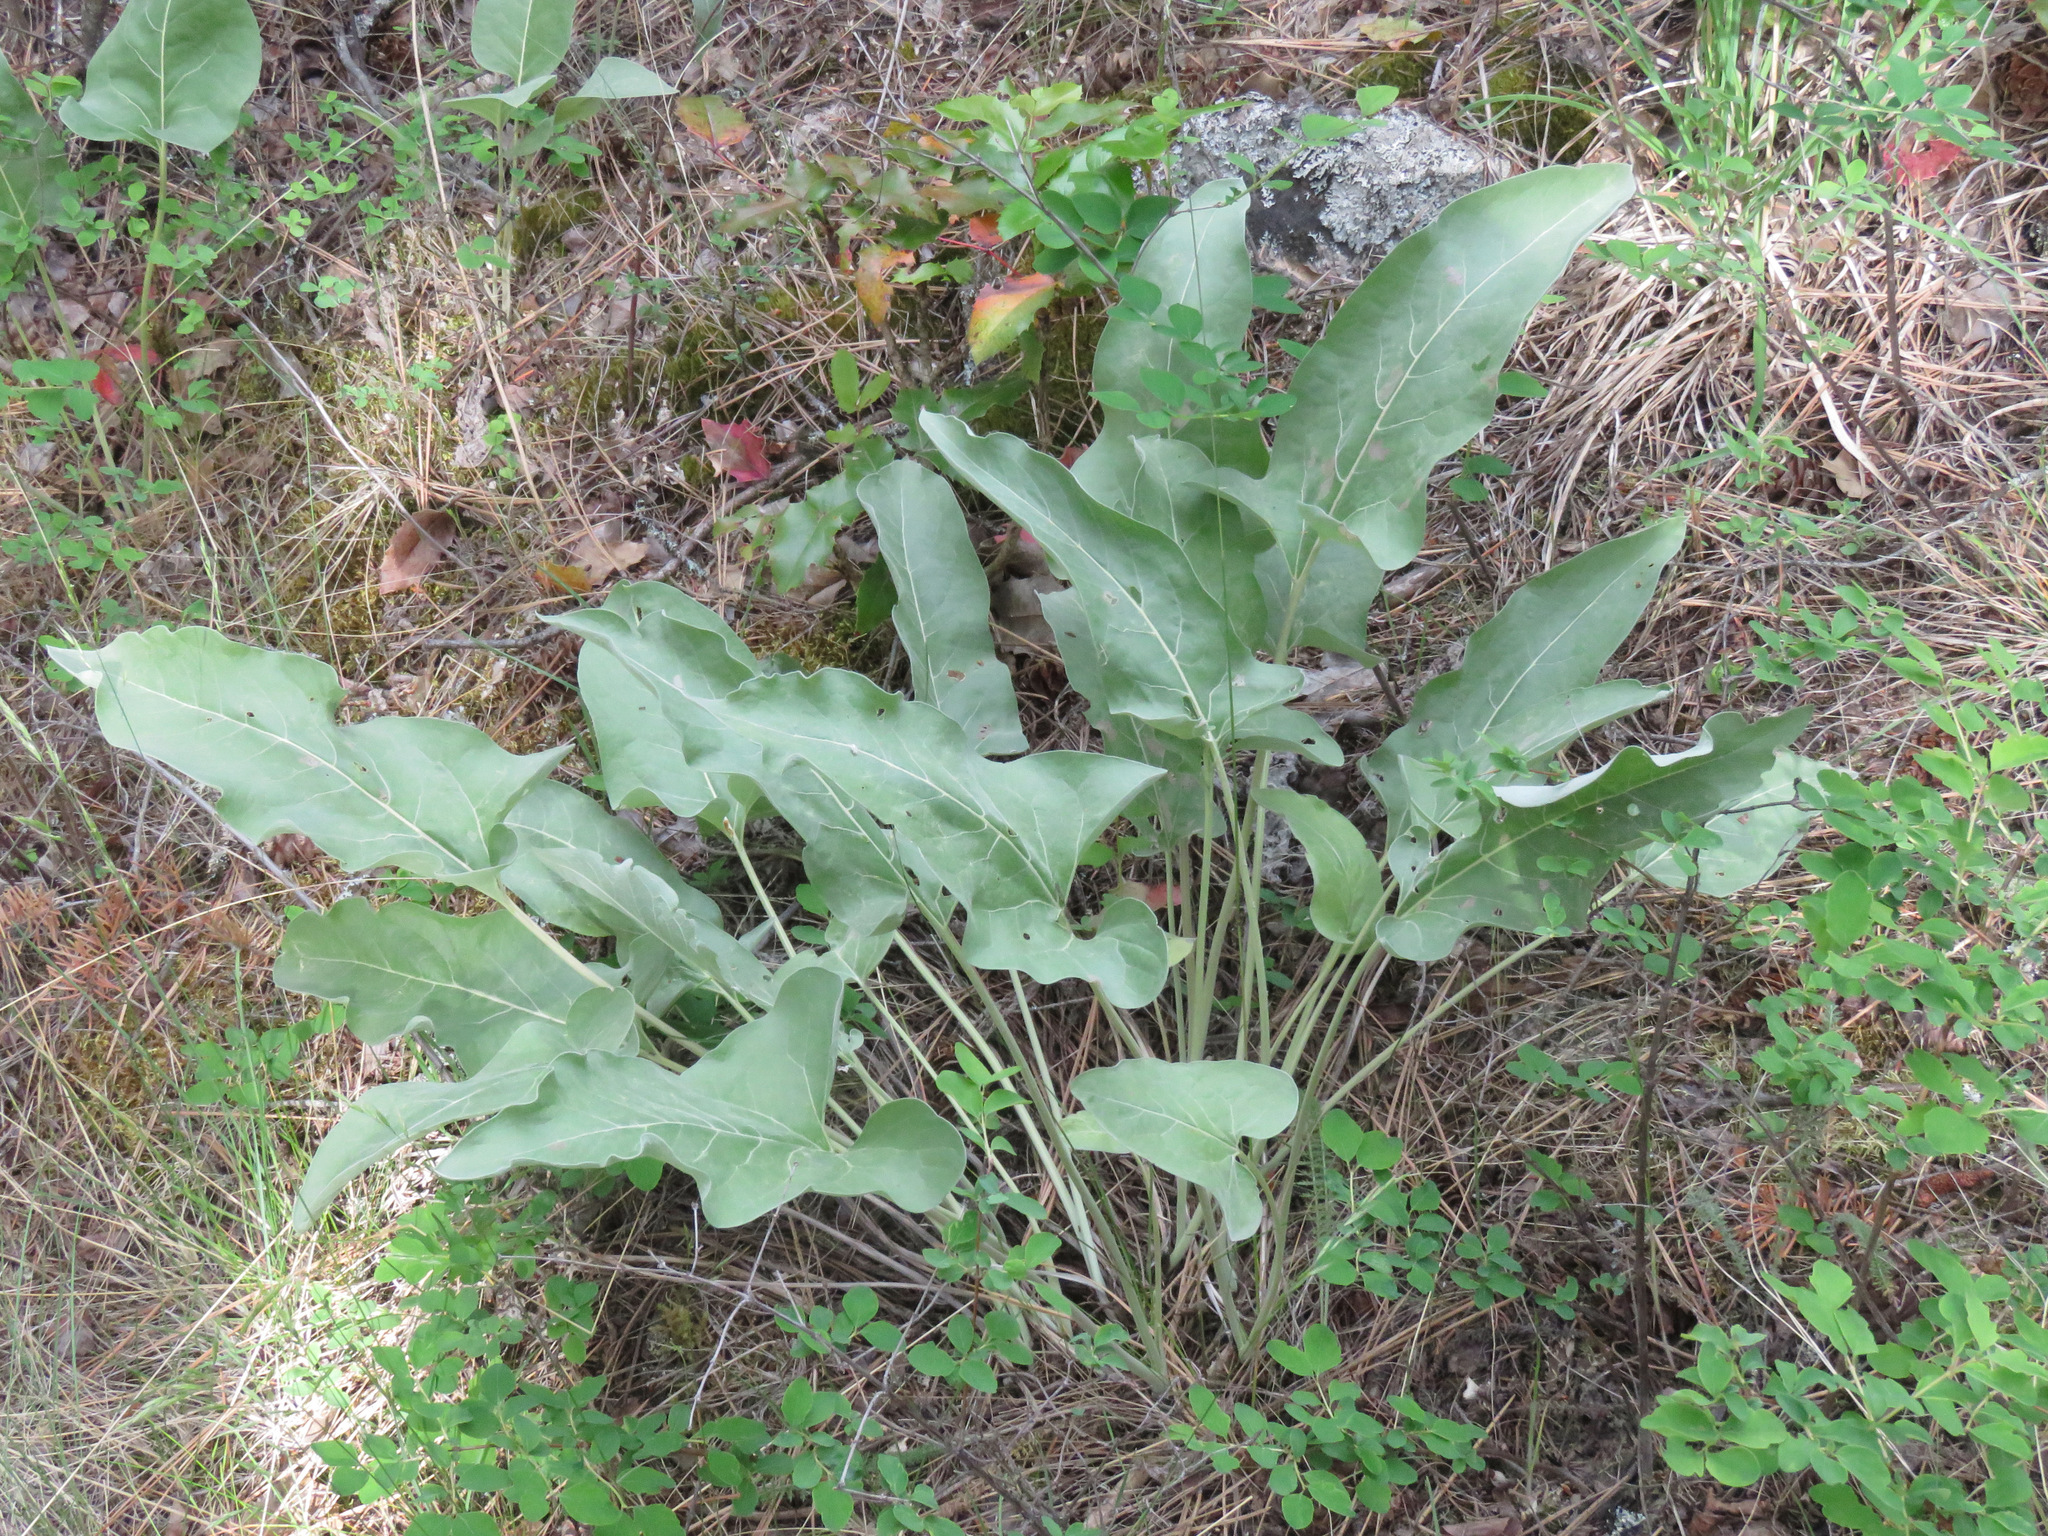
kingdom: Plantae
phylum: Tracheophyta
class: Magnoliopsida
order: Asterales
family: Asteraceae
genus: Wyethia
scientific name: Wyethia sagittata
